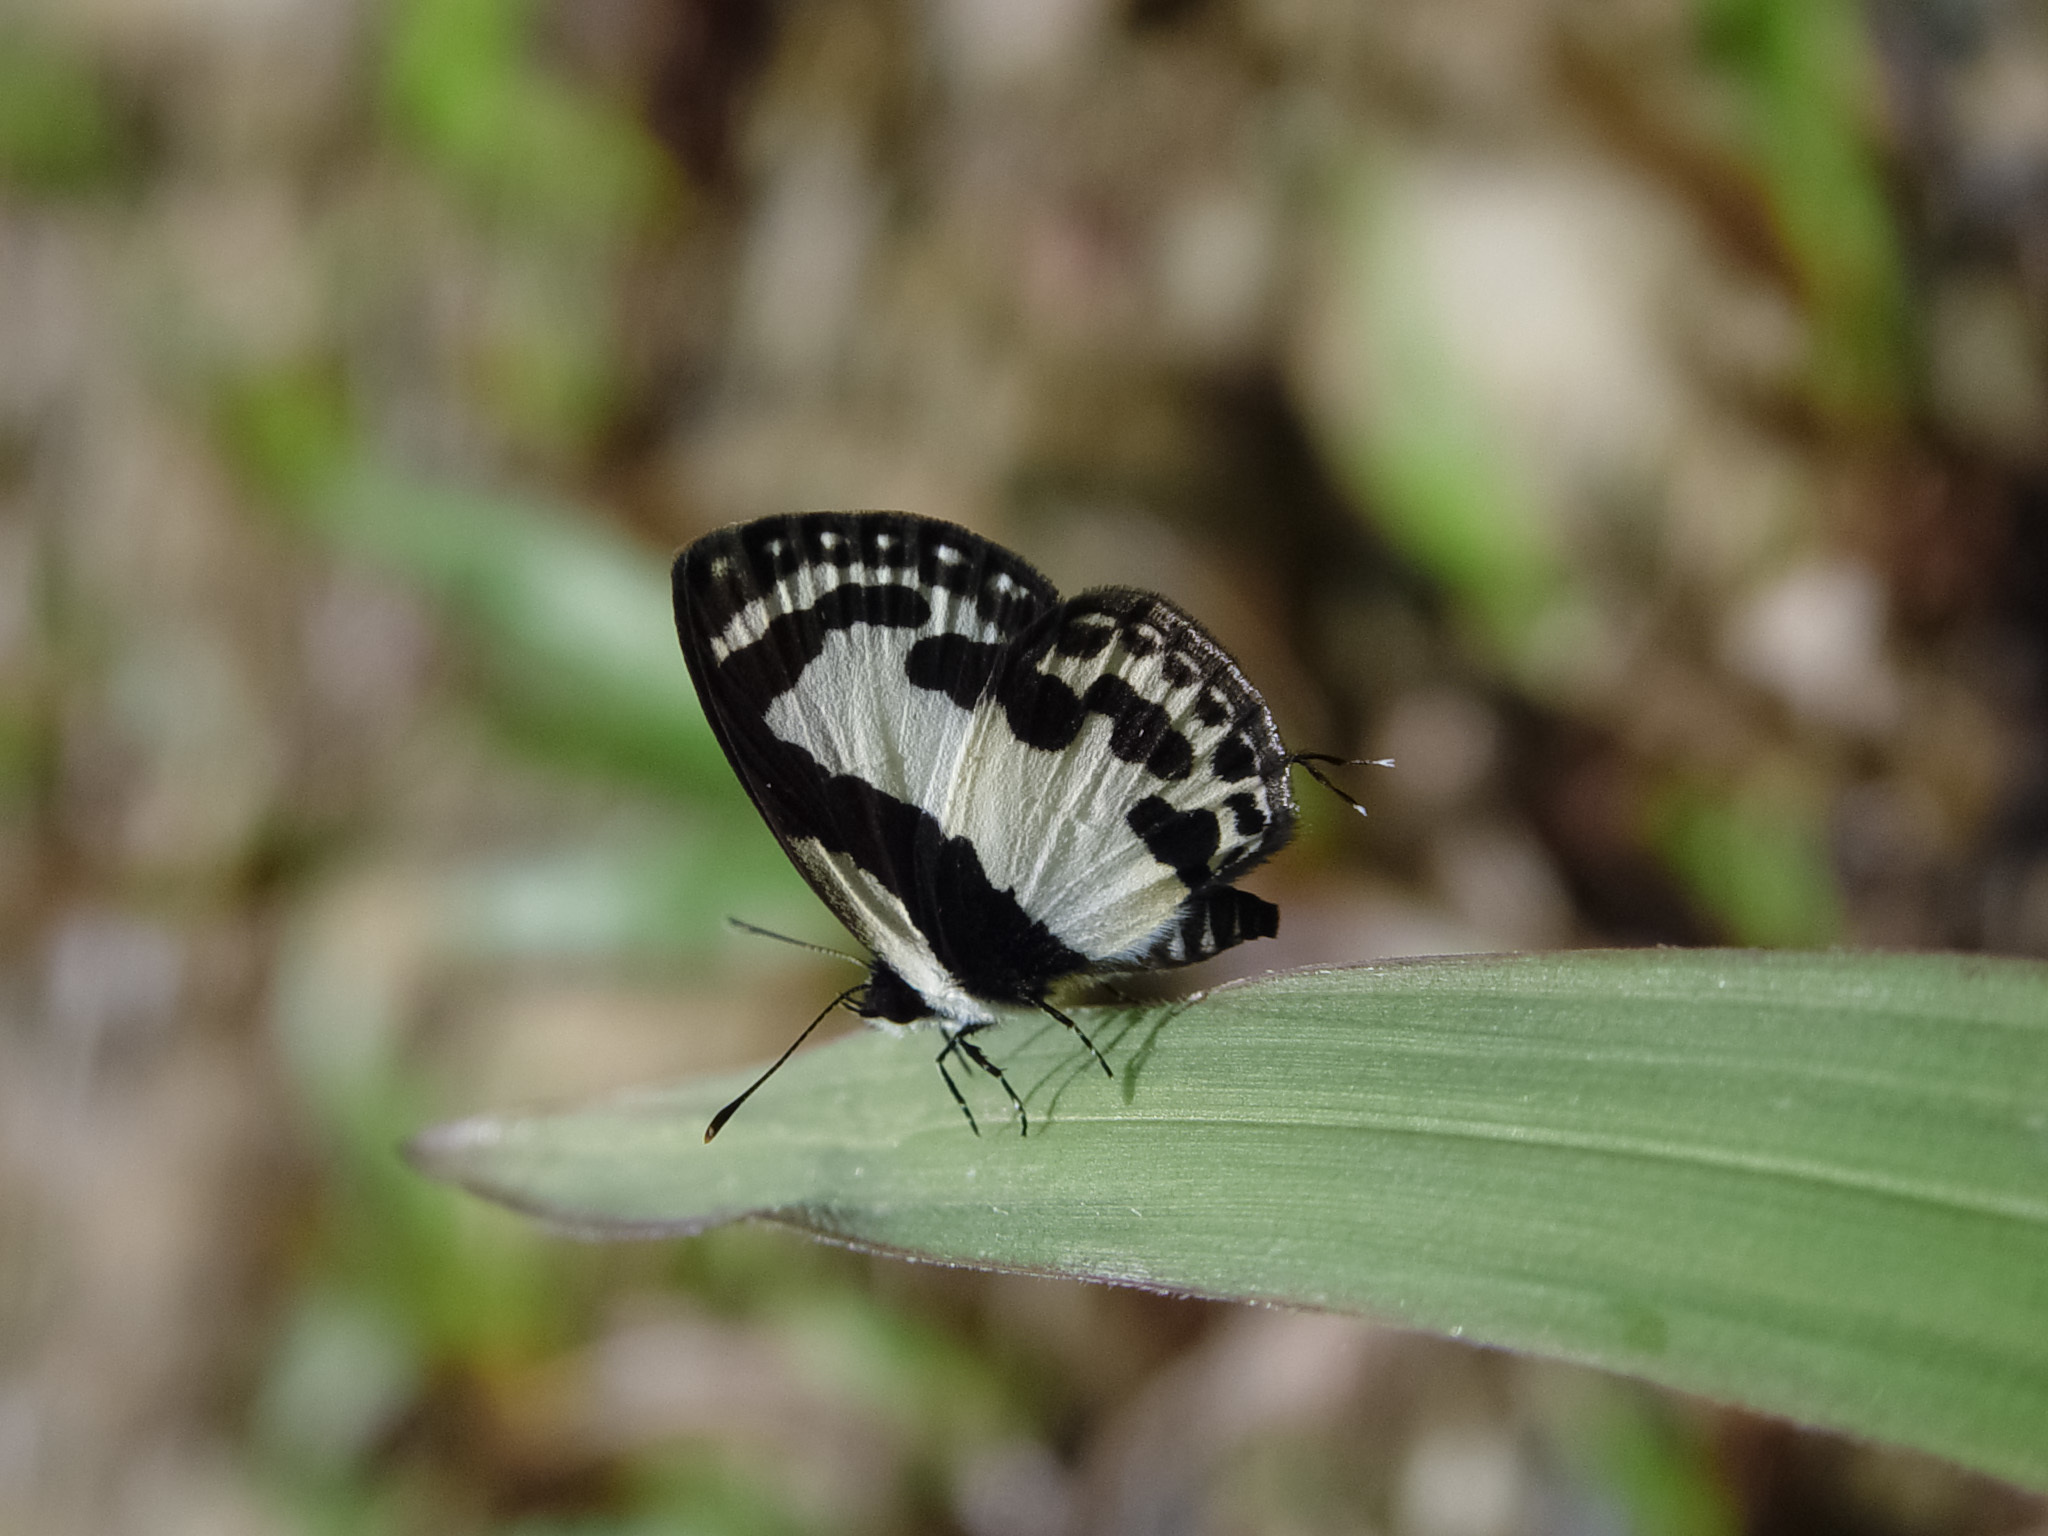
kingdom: Animalia
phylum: Arthropoda
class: Insecta
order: Lepidoptera
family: Lycaenidae
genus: Caleta
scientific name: Caleta roxus
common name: Straight pierrot
